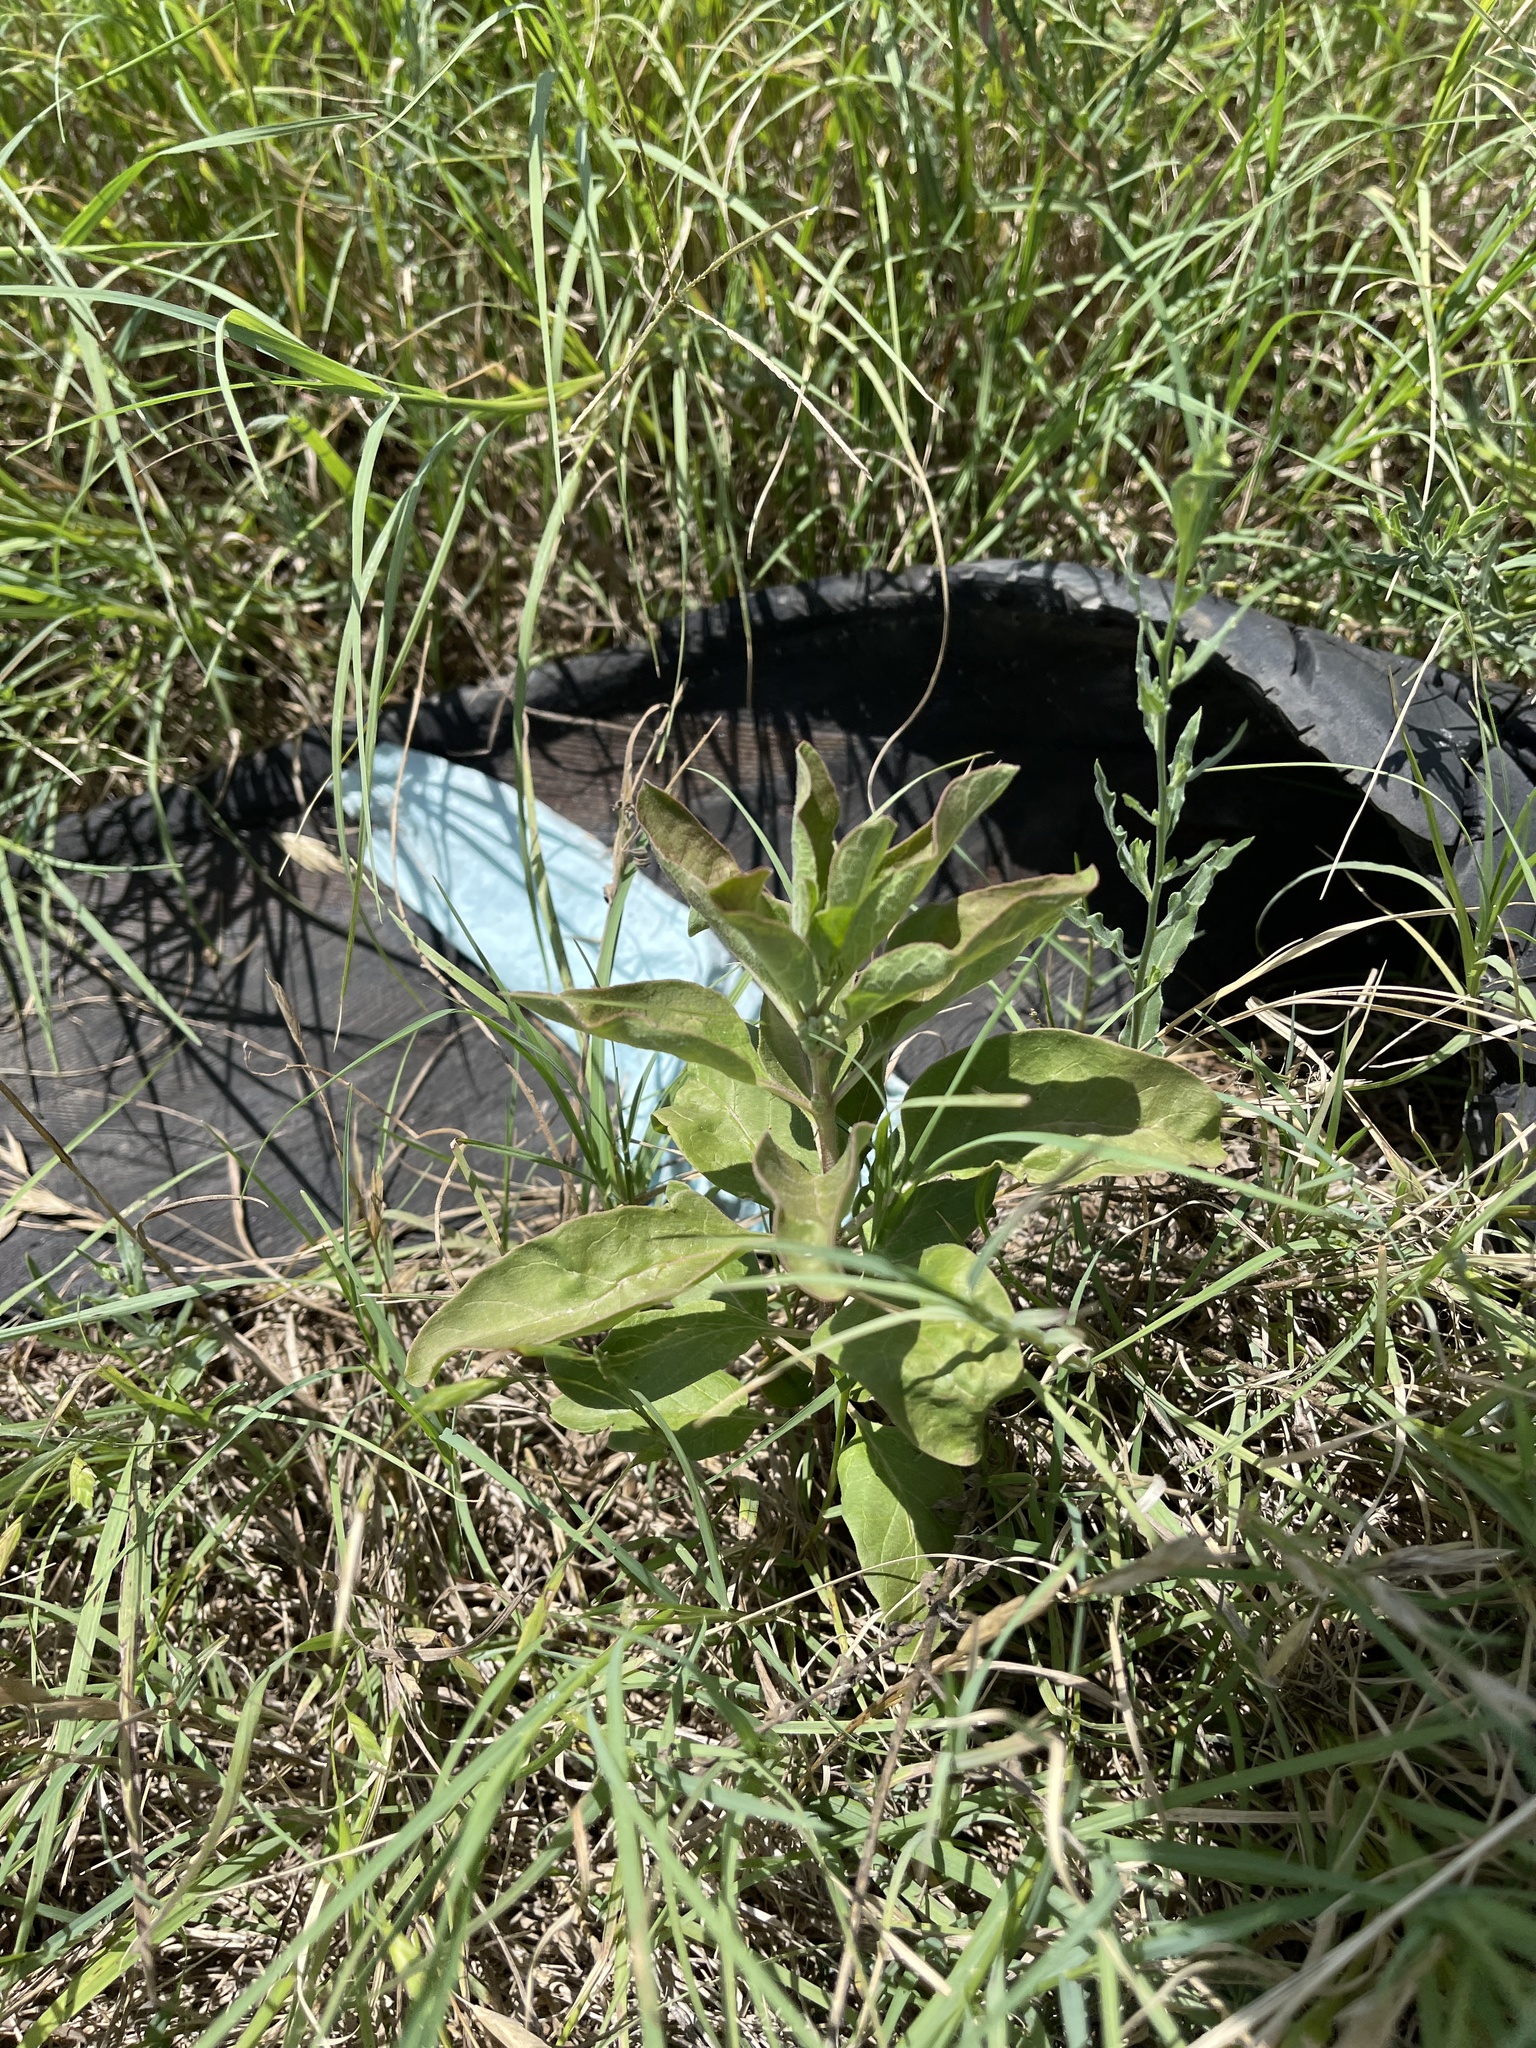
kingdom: Plantae
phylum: Tracheophyta
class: Magnoliopsida
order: Gentianales
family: Apocynaceae
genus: Asclepias
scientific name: Asclepias oenotheroides
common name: Zizotes milkweed
